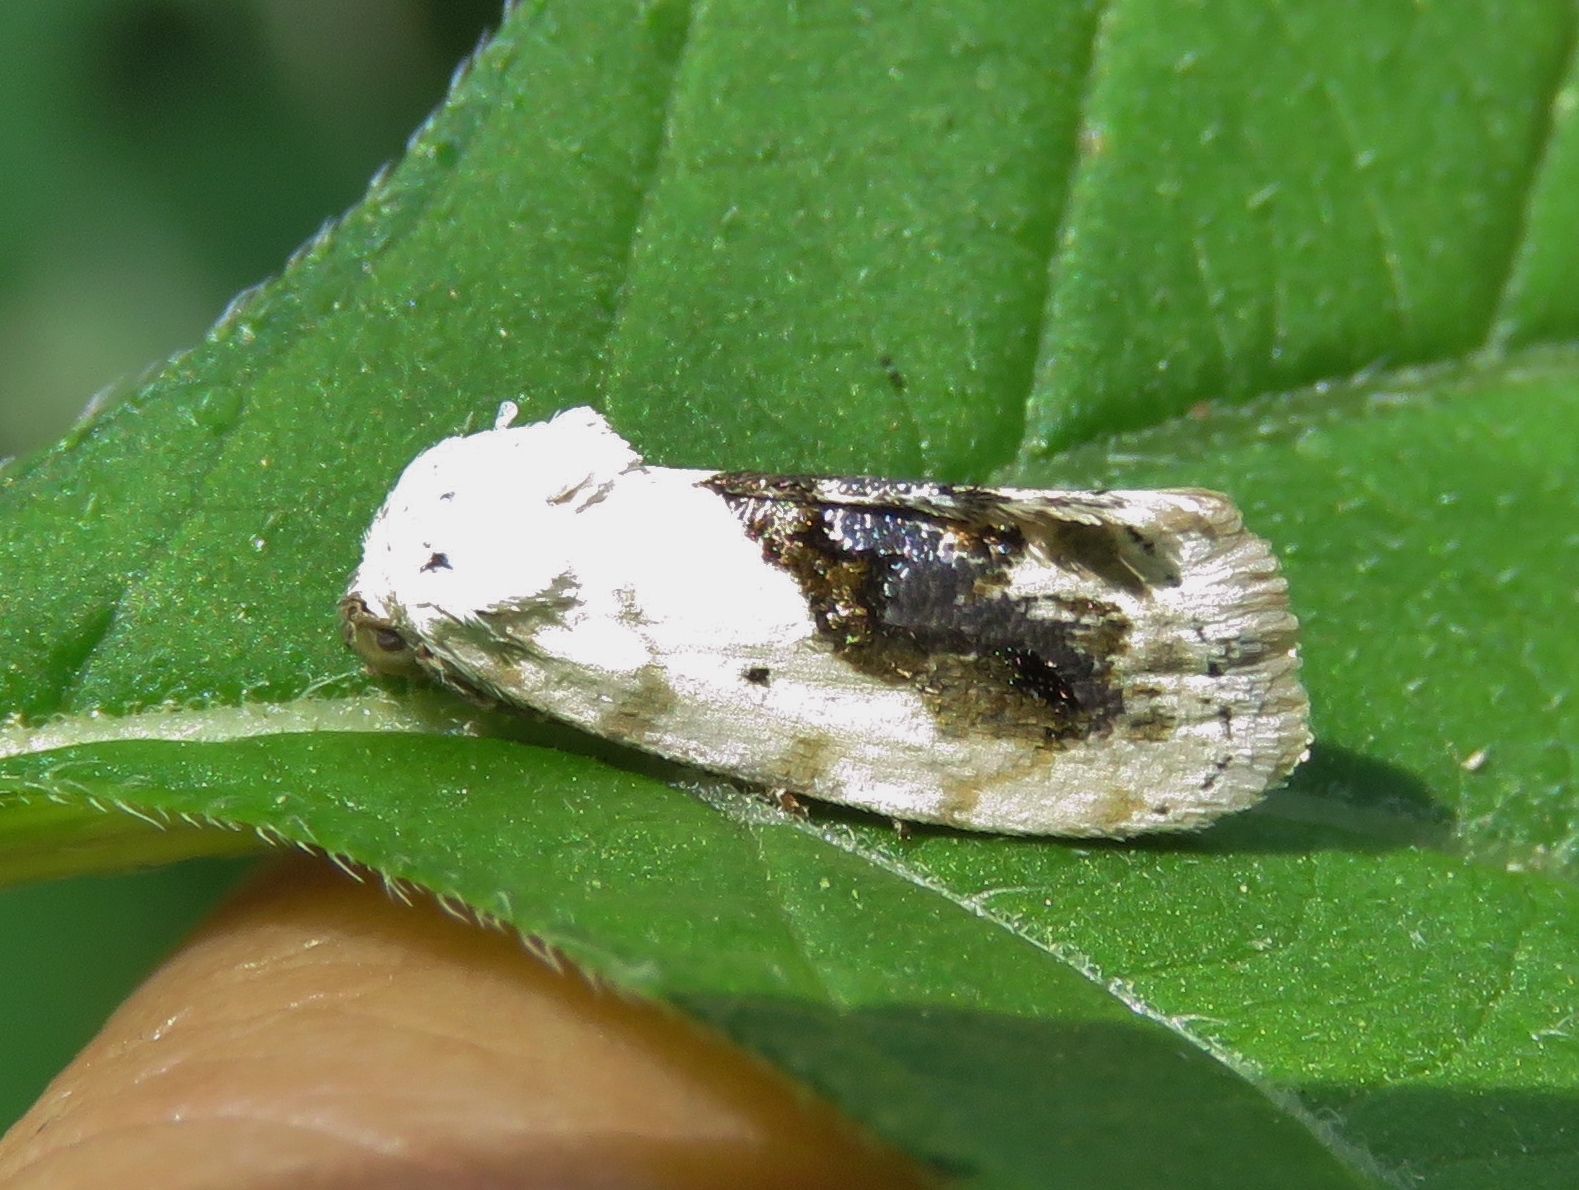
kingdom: Animalia
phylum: Arthropoda
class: Insecta
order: Lepidoptera
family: Noctuidae
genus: Acontia
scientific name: Acontia erastrioides
